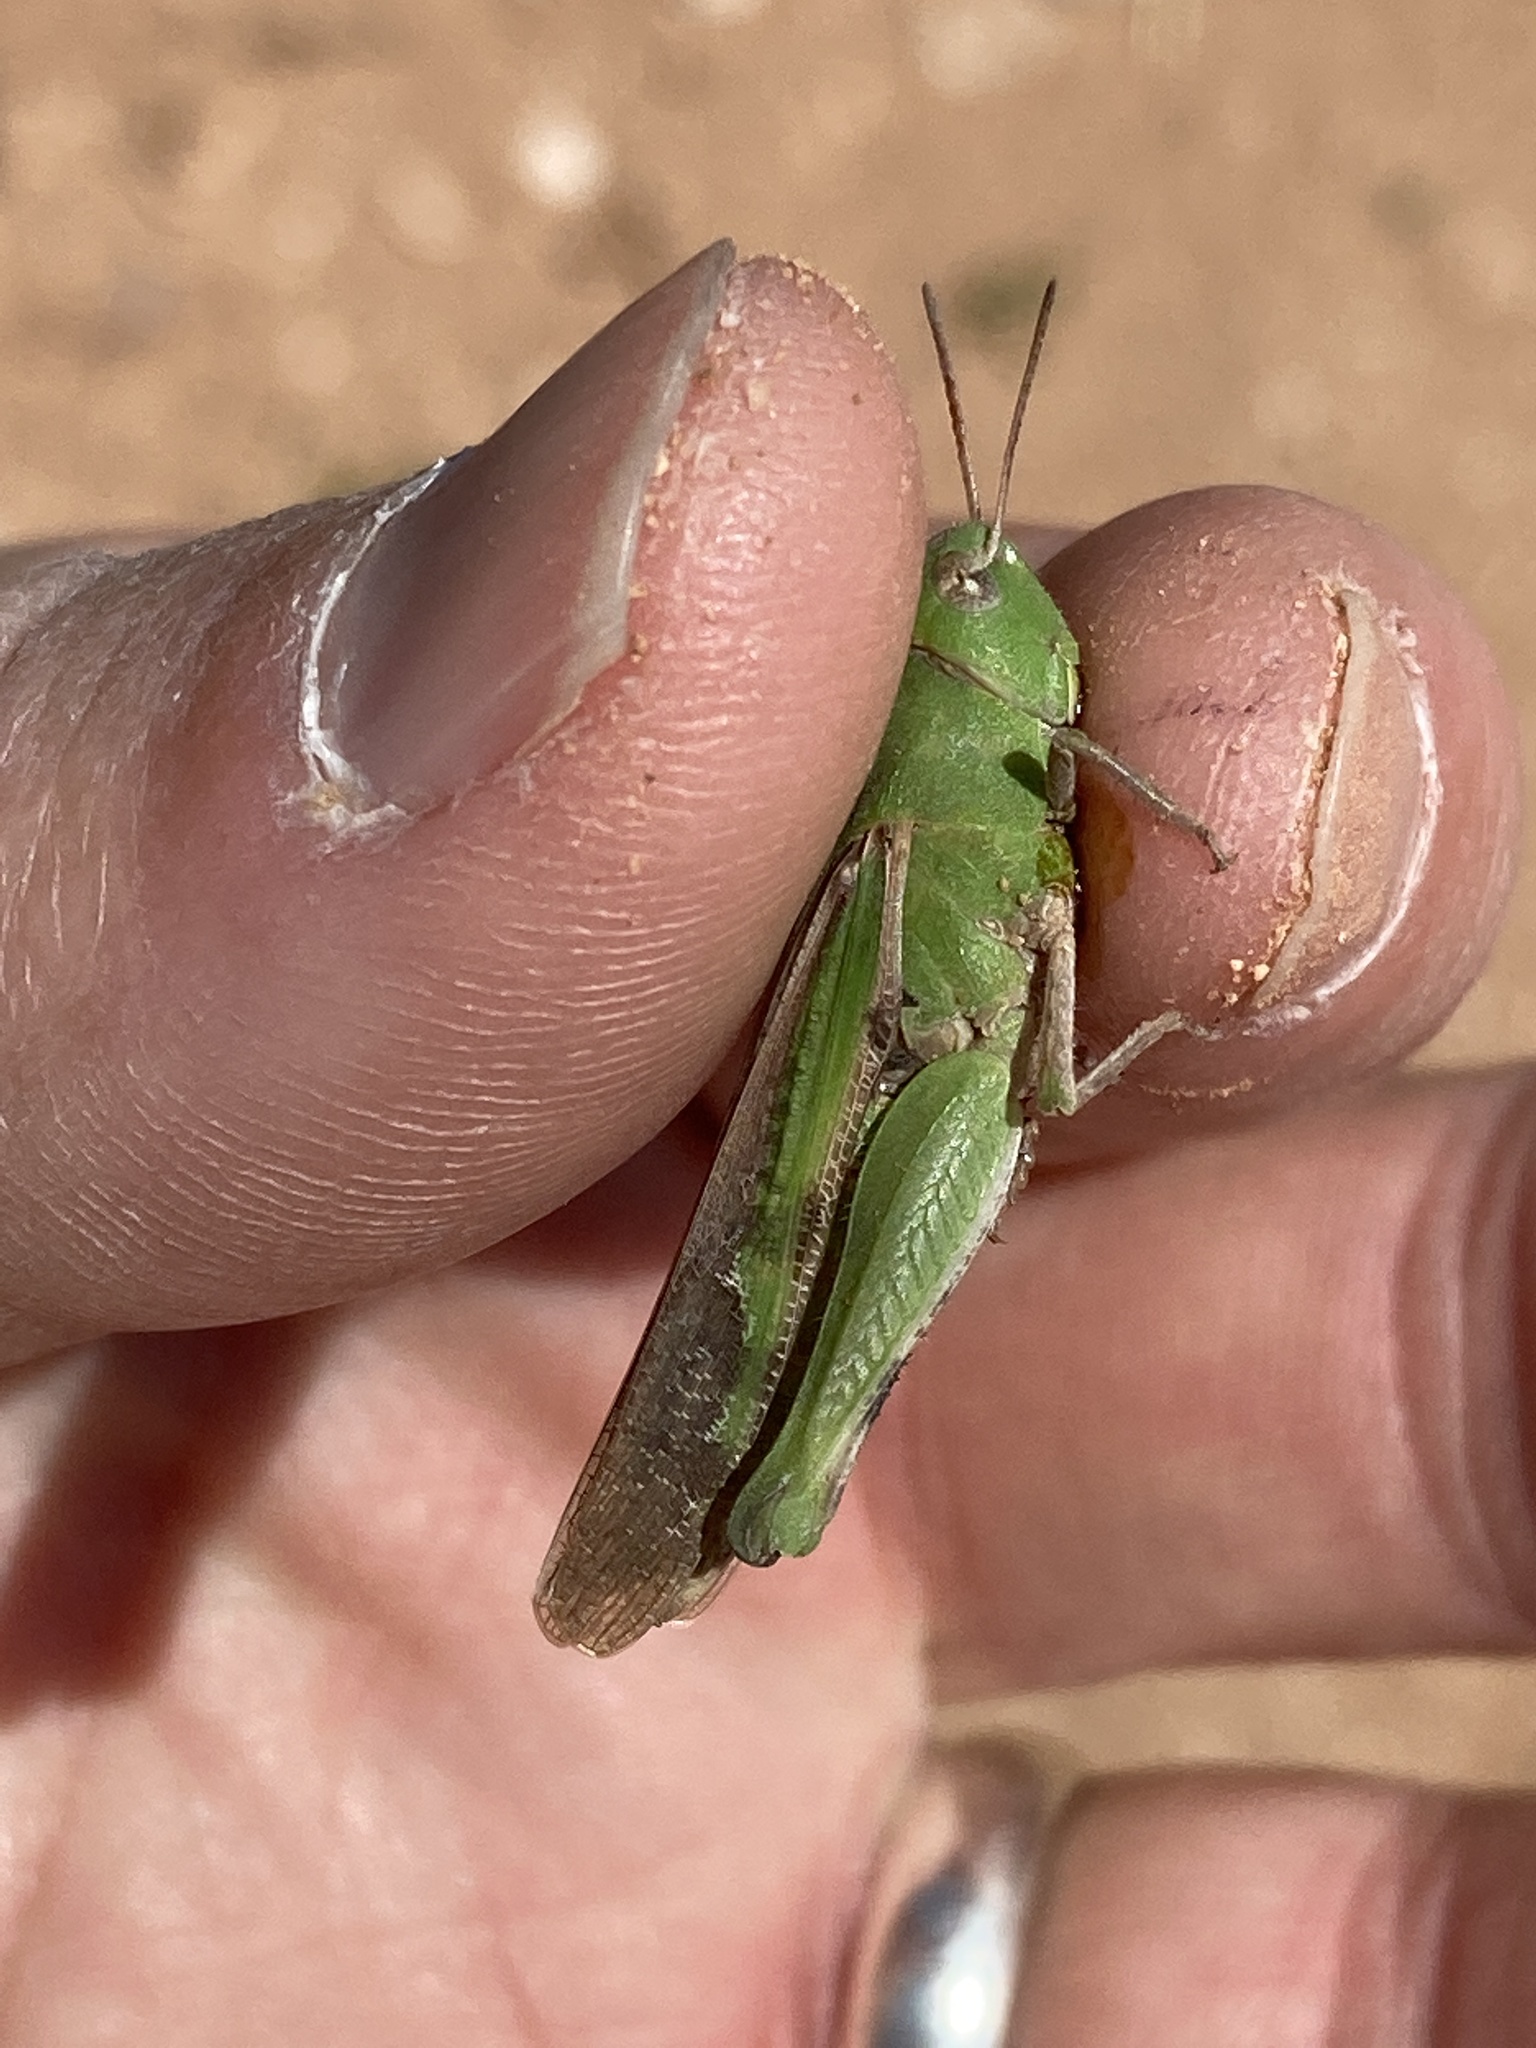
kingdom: Animalia
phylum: Arthropoda
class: Insecta
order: Orthoptera
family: Acrididae
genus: Chortophaga
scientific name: Chortophaga viridifasciata
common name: Green-striped grasshopper
